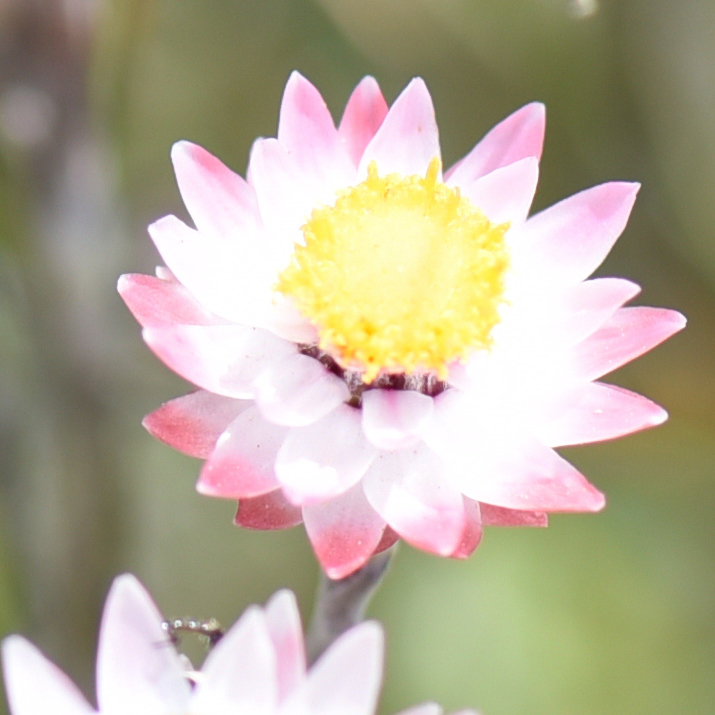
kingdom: Plantae
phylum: Tracheophyta
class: Magnoliopsida
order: Asterales
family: Asteraceae
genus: Achyranthemum
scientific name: Achyranthemum affine
